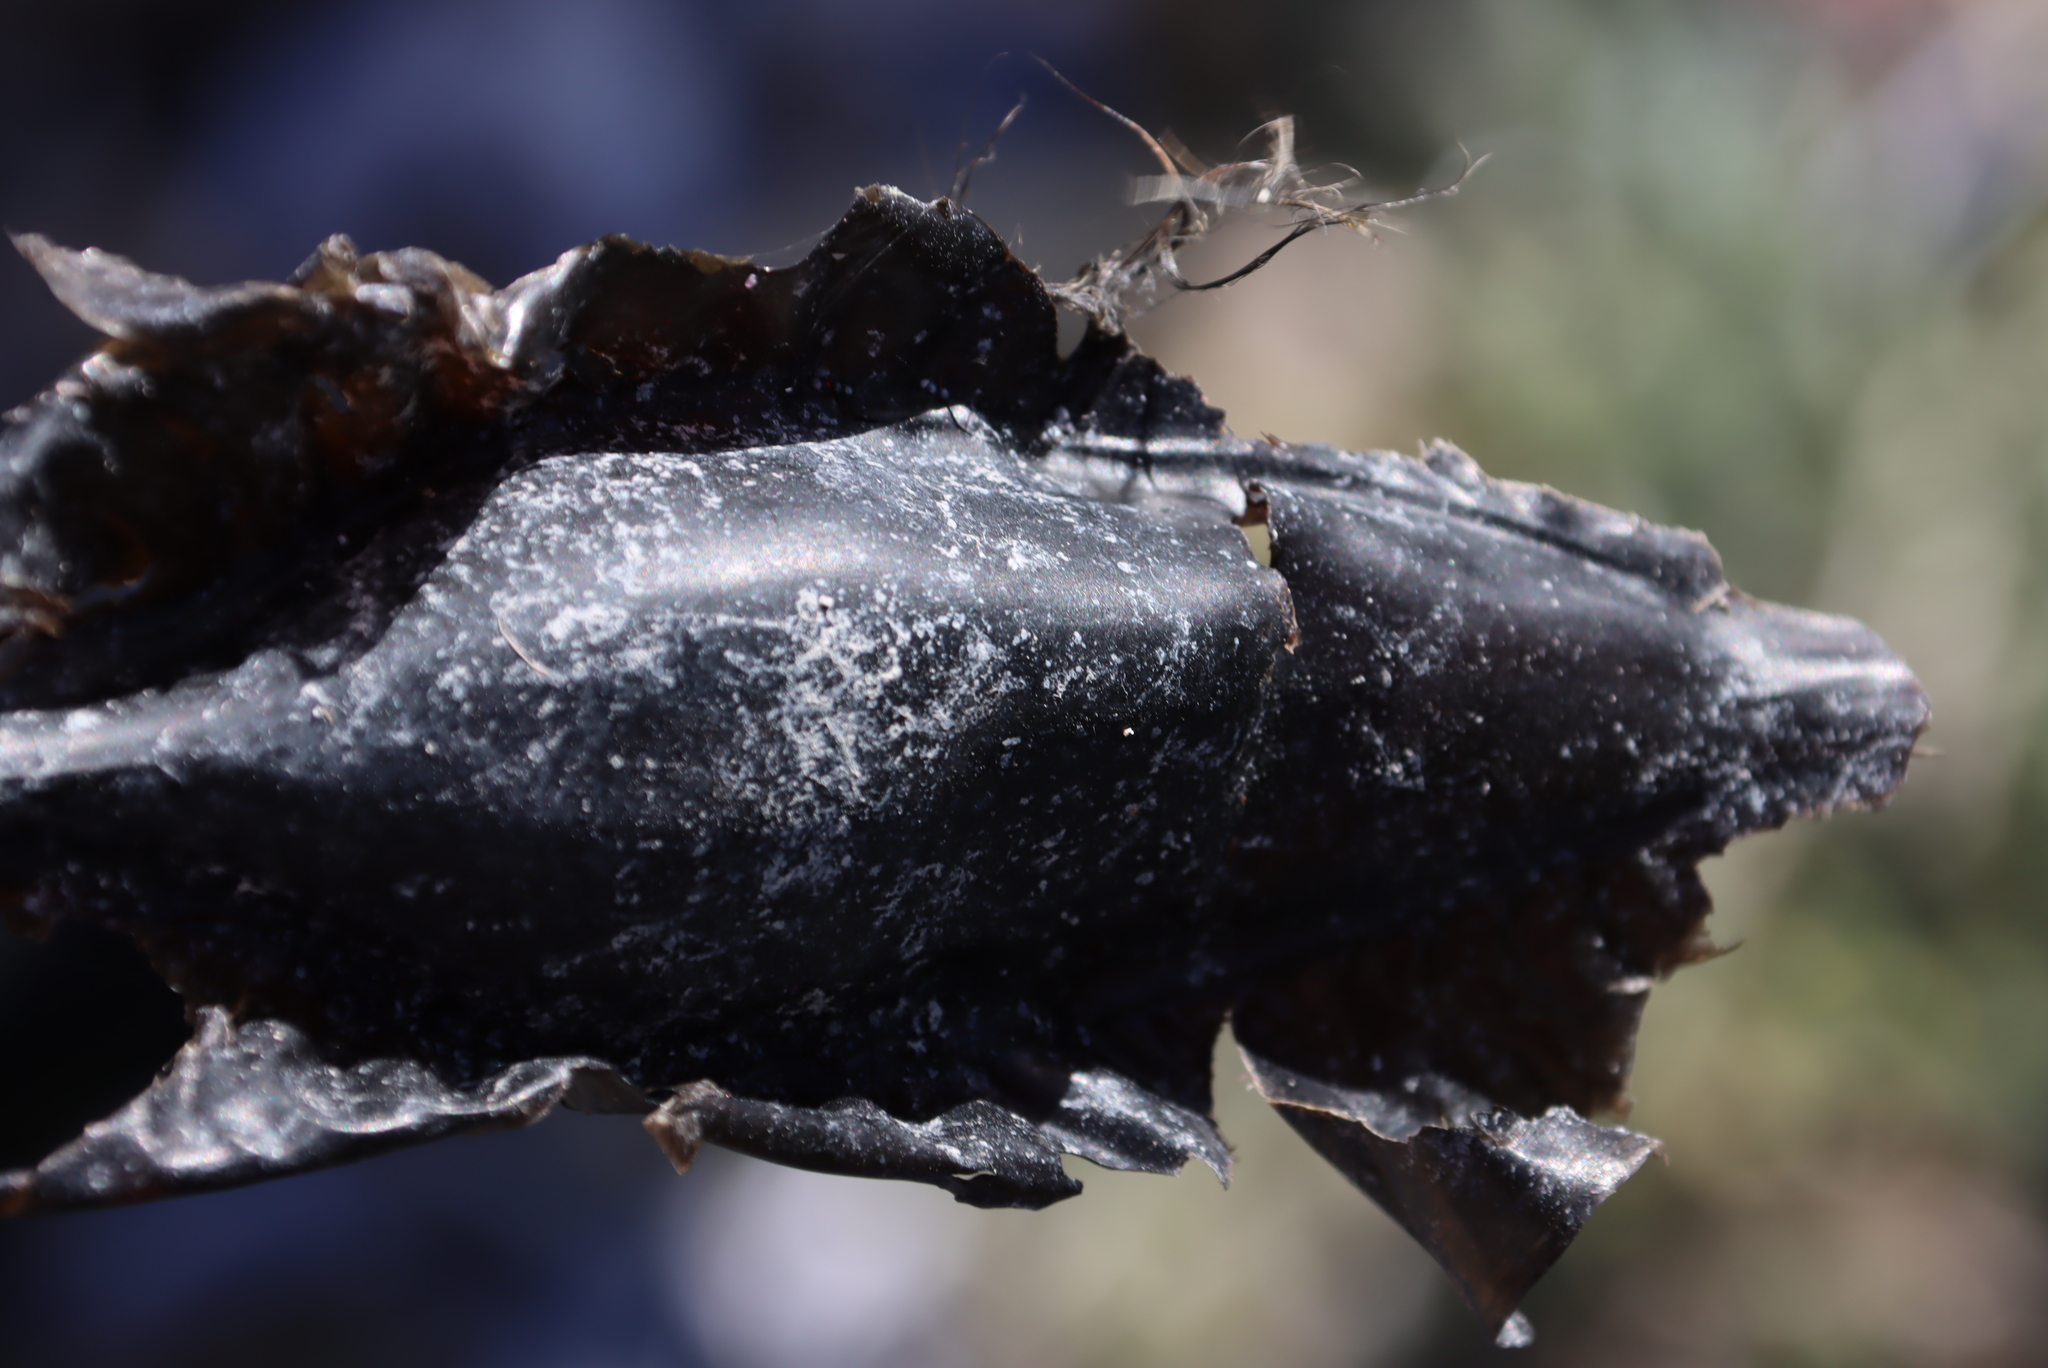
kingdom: Animalia
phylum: Chordata
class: Holocephali
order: Chimaeriformes
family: Callorhinchidae
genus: Callorhinchus
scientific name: Callorhinchus capensis
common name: Cape elephantfish
